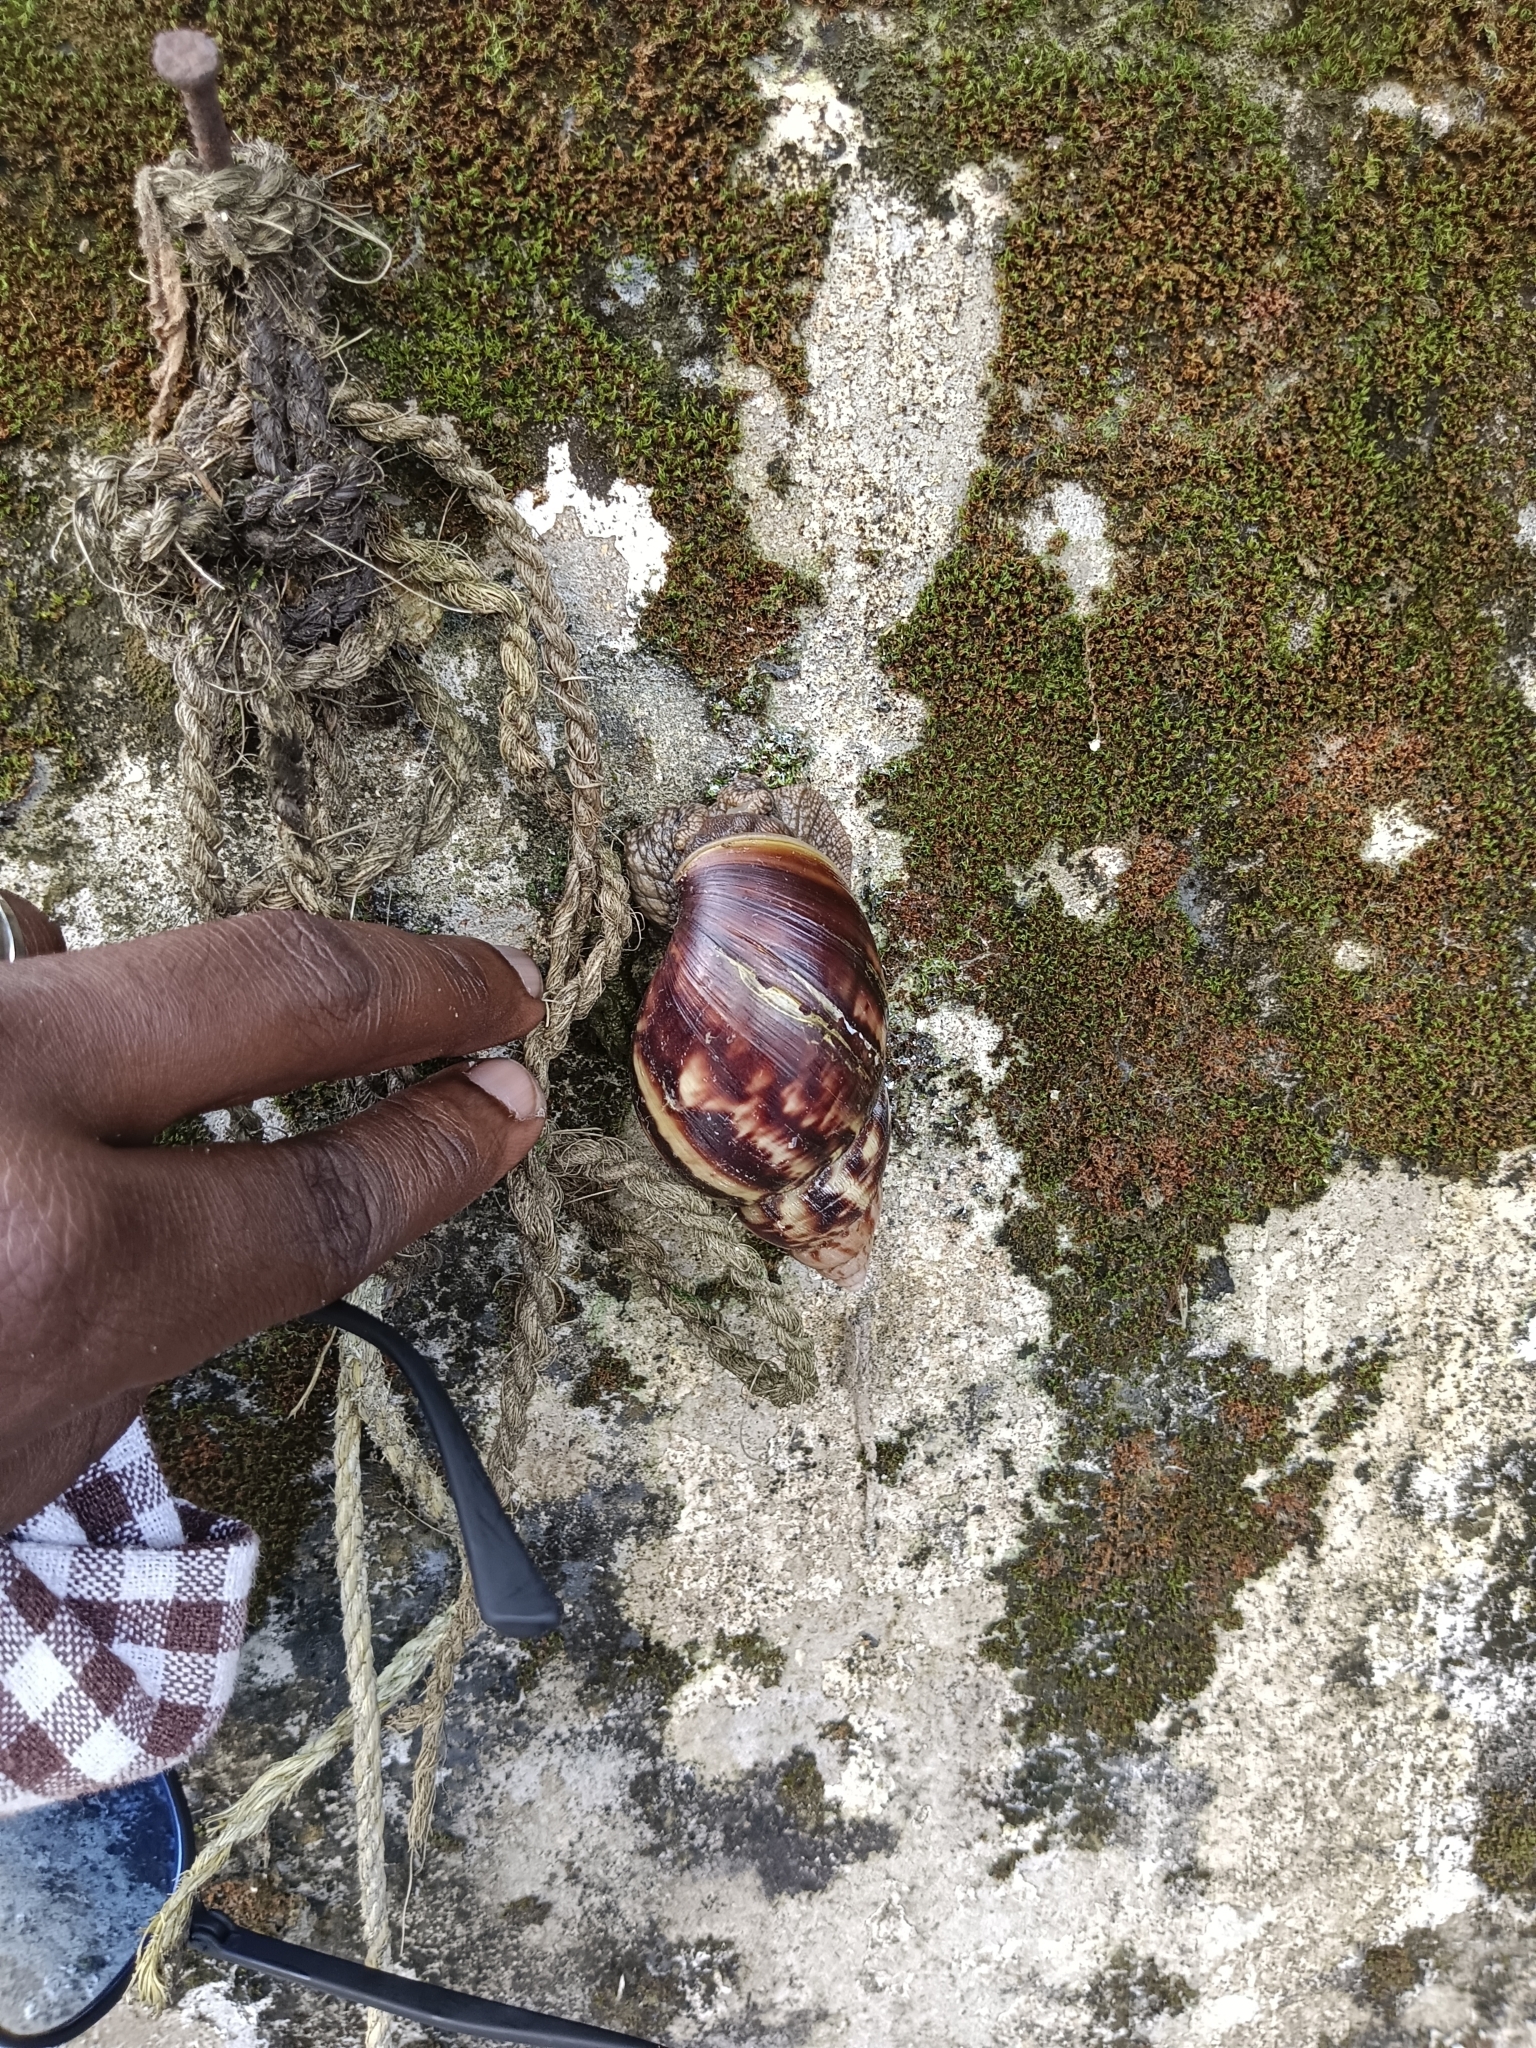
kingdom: Animalia
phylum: Mollusca
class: Gastropoda
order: Stylommatophora
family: Achatinidae
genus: Lissachatina
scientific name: Lissachatina fulica
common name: Giant african snail
